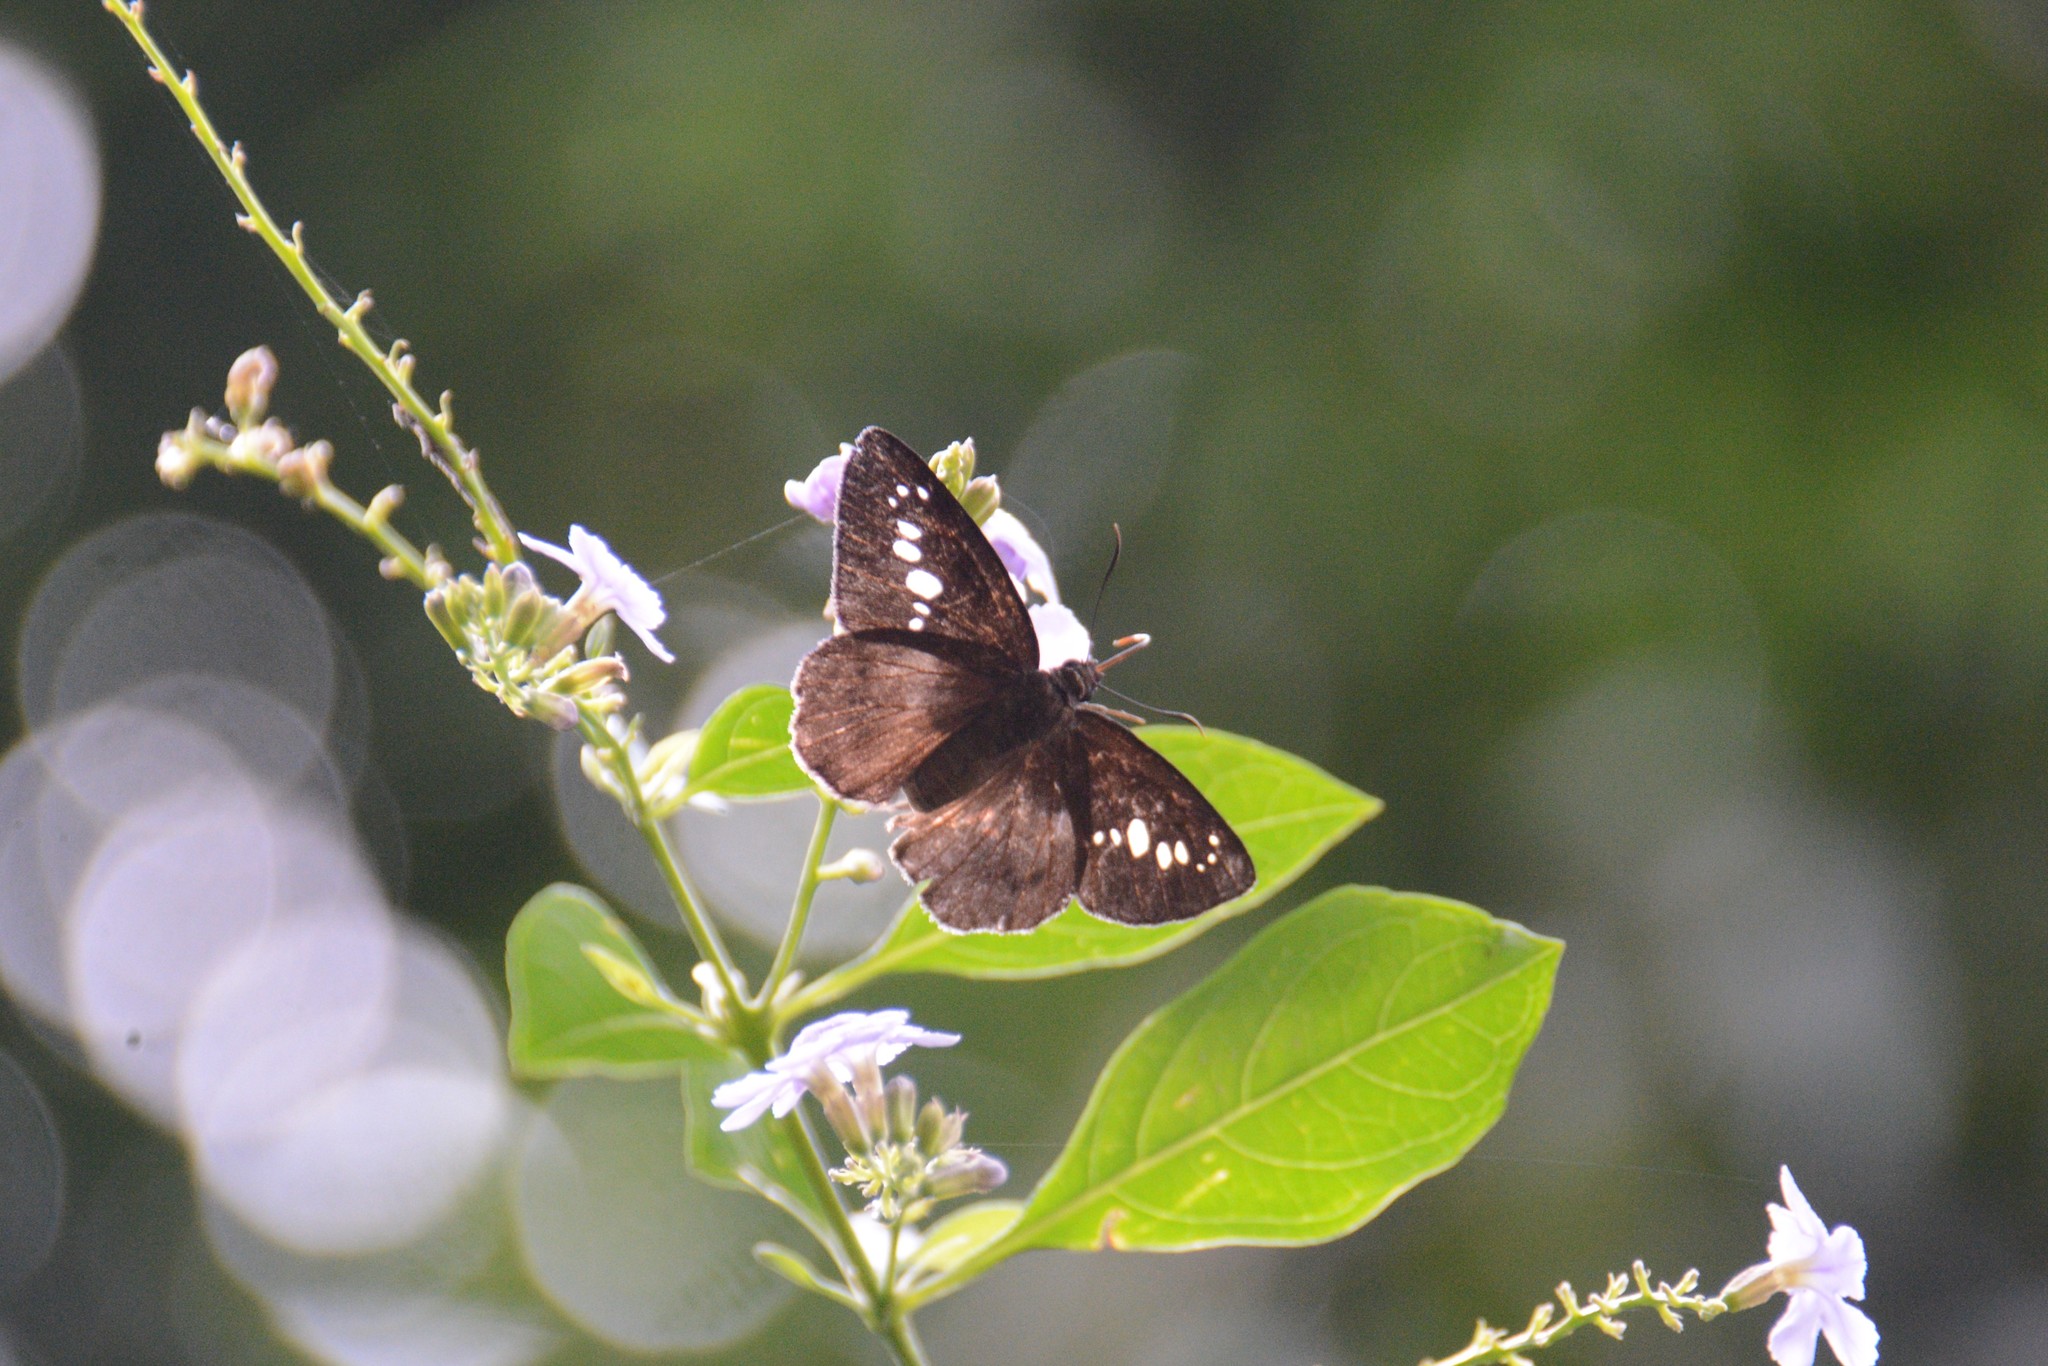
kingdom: Animalia
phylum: Arthropoda
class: Insecta
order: Lepidoptera
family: Hesperiidae
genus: Seseria
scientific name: Seseria formosana
